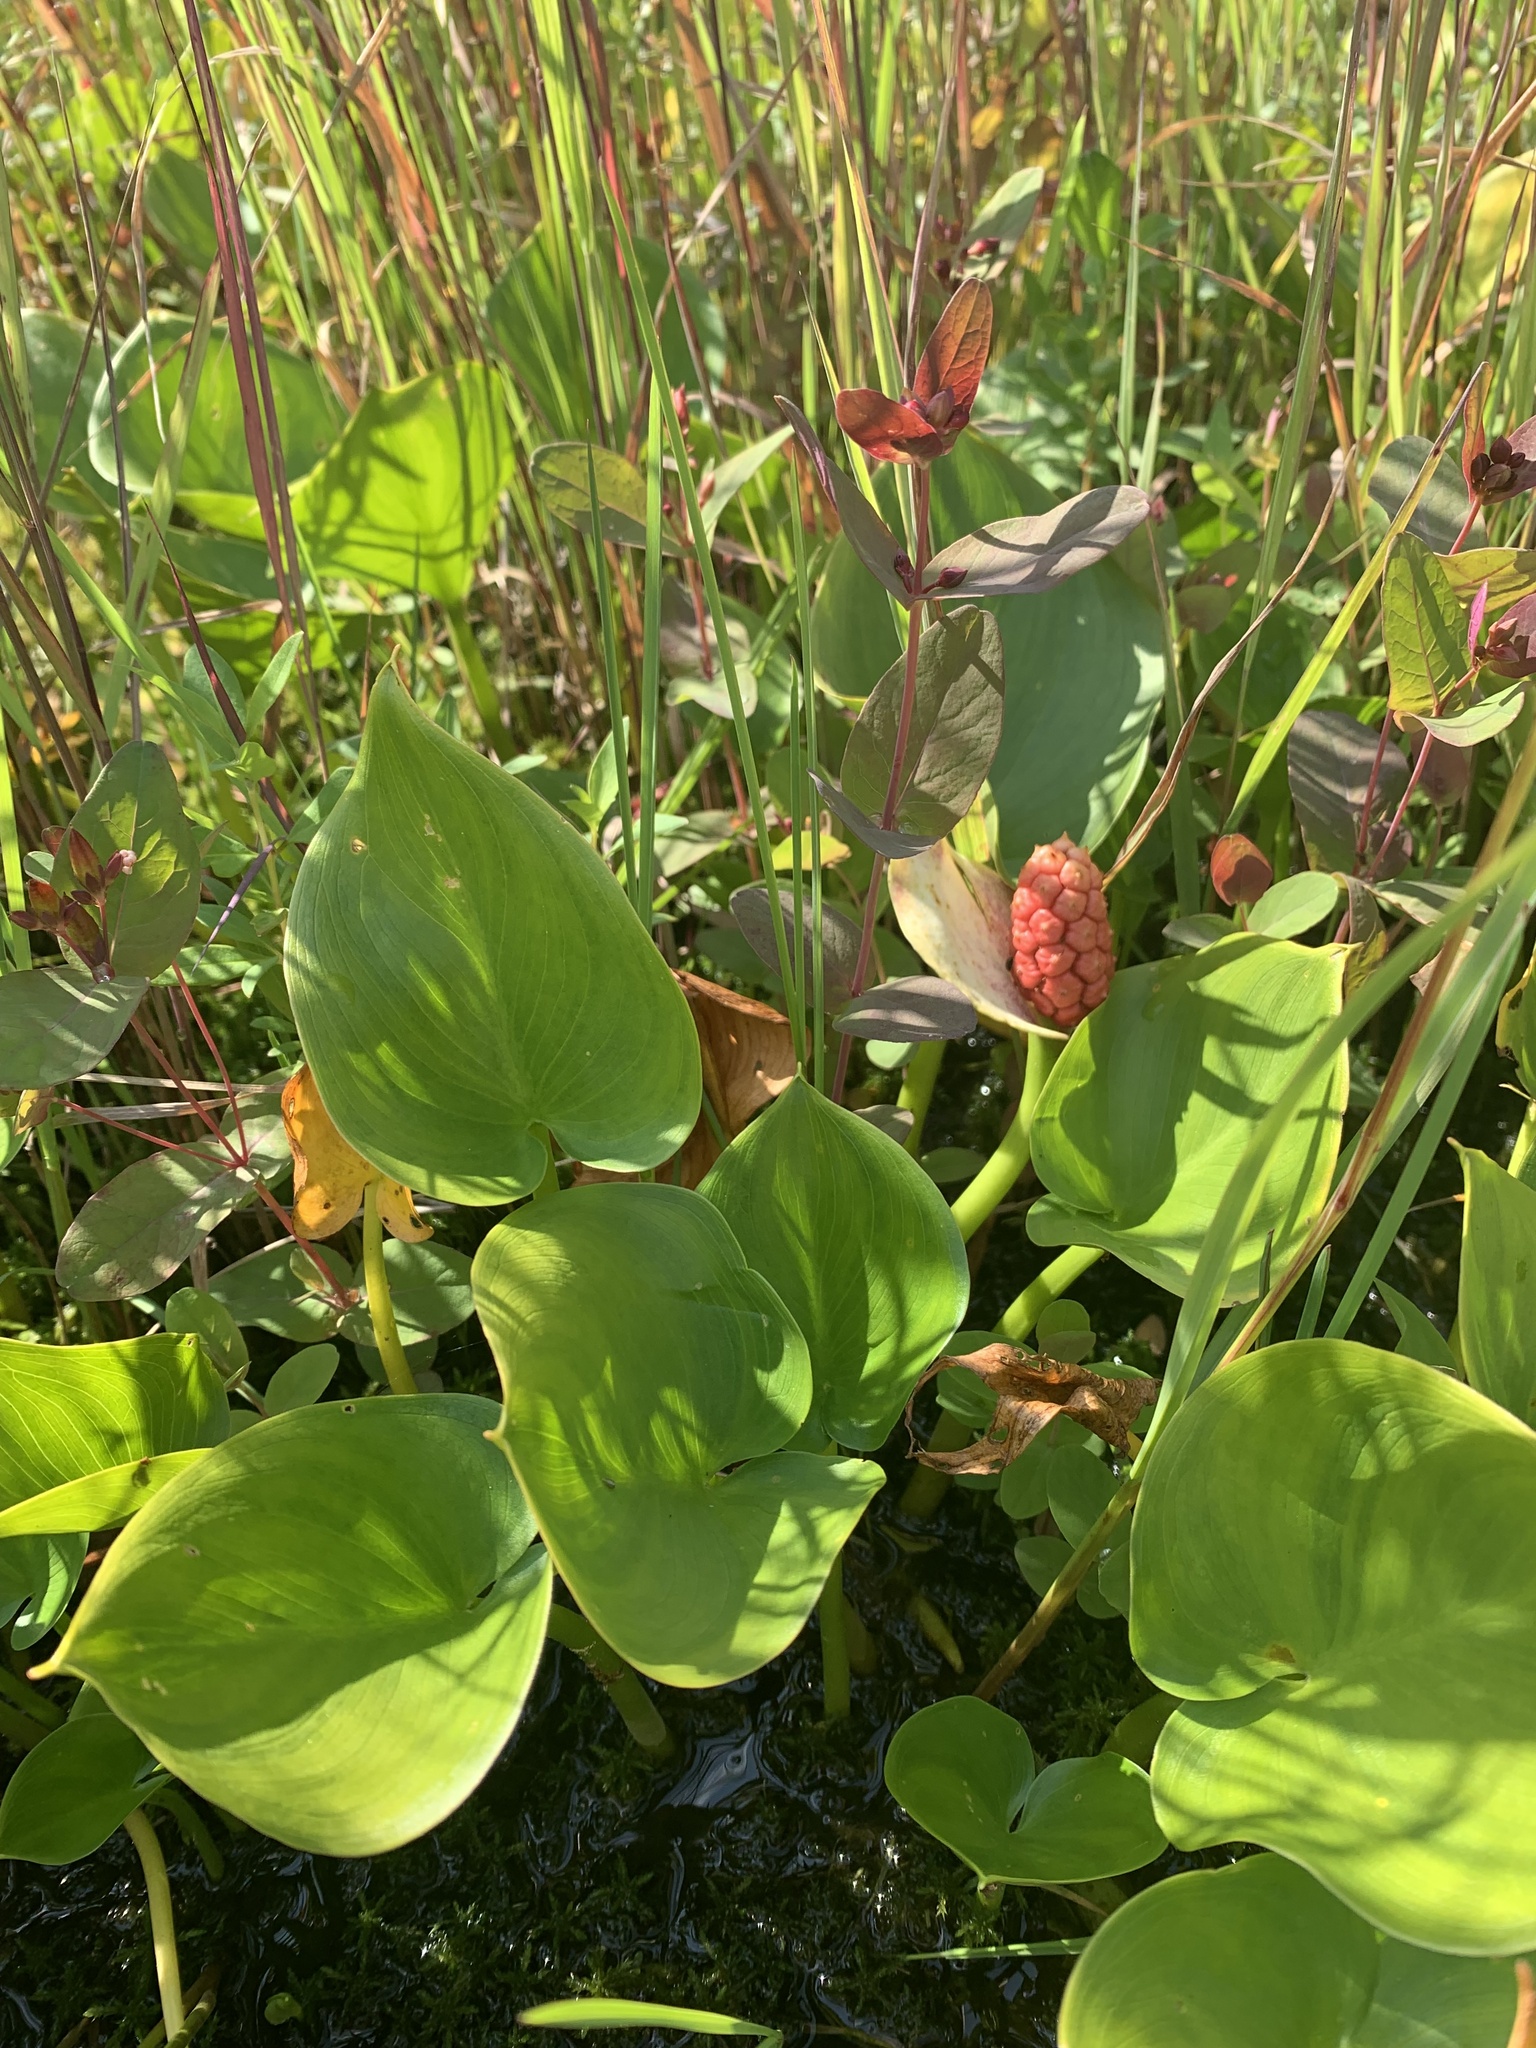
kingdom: Plantae
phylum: Tracheophyta
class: Liliopsida
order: Alismatales
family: Araceae
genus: Calla
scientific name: Calla palustris
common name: Bog arum
